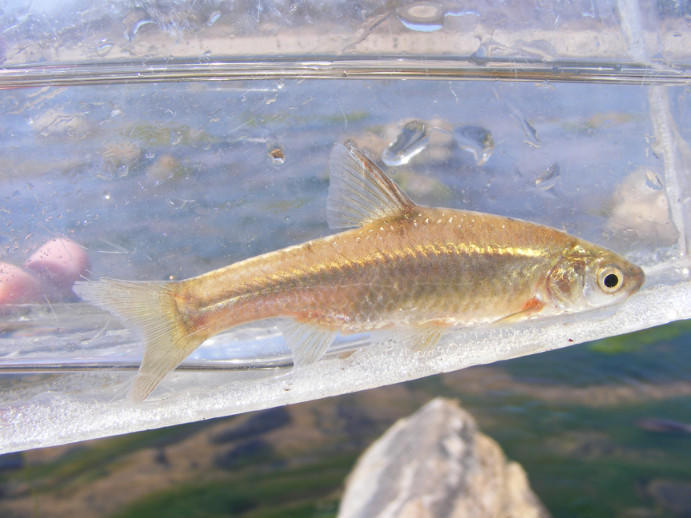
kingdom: Animalia
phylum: Chordata
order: Cypriniformes
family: Cyprinidae
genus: Enteromius
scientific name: Enteromius paludinosus
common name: Straightfin barb
